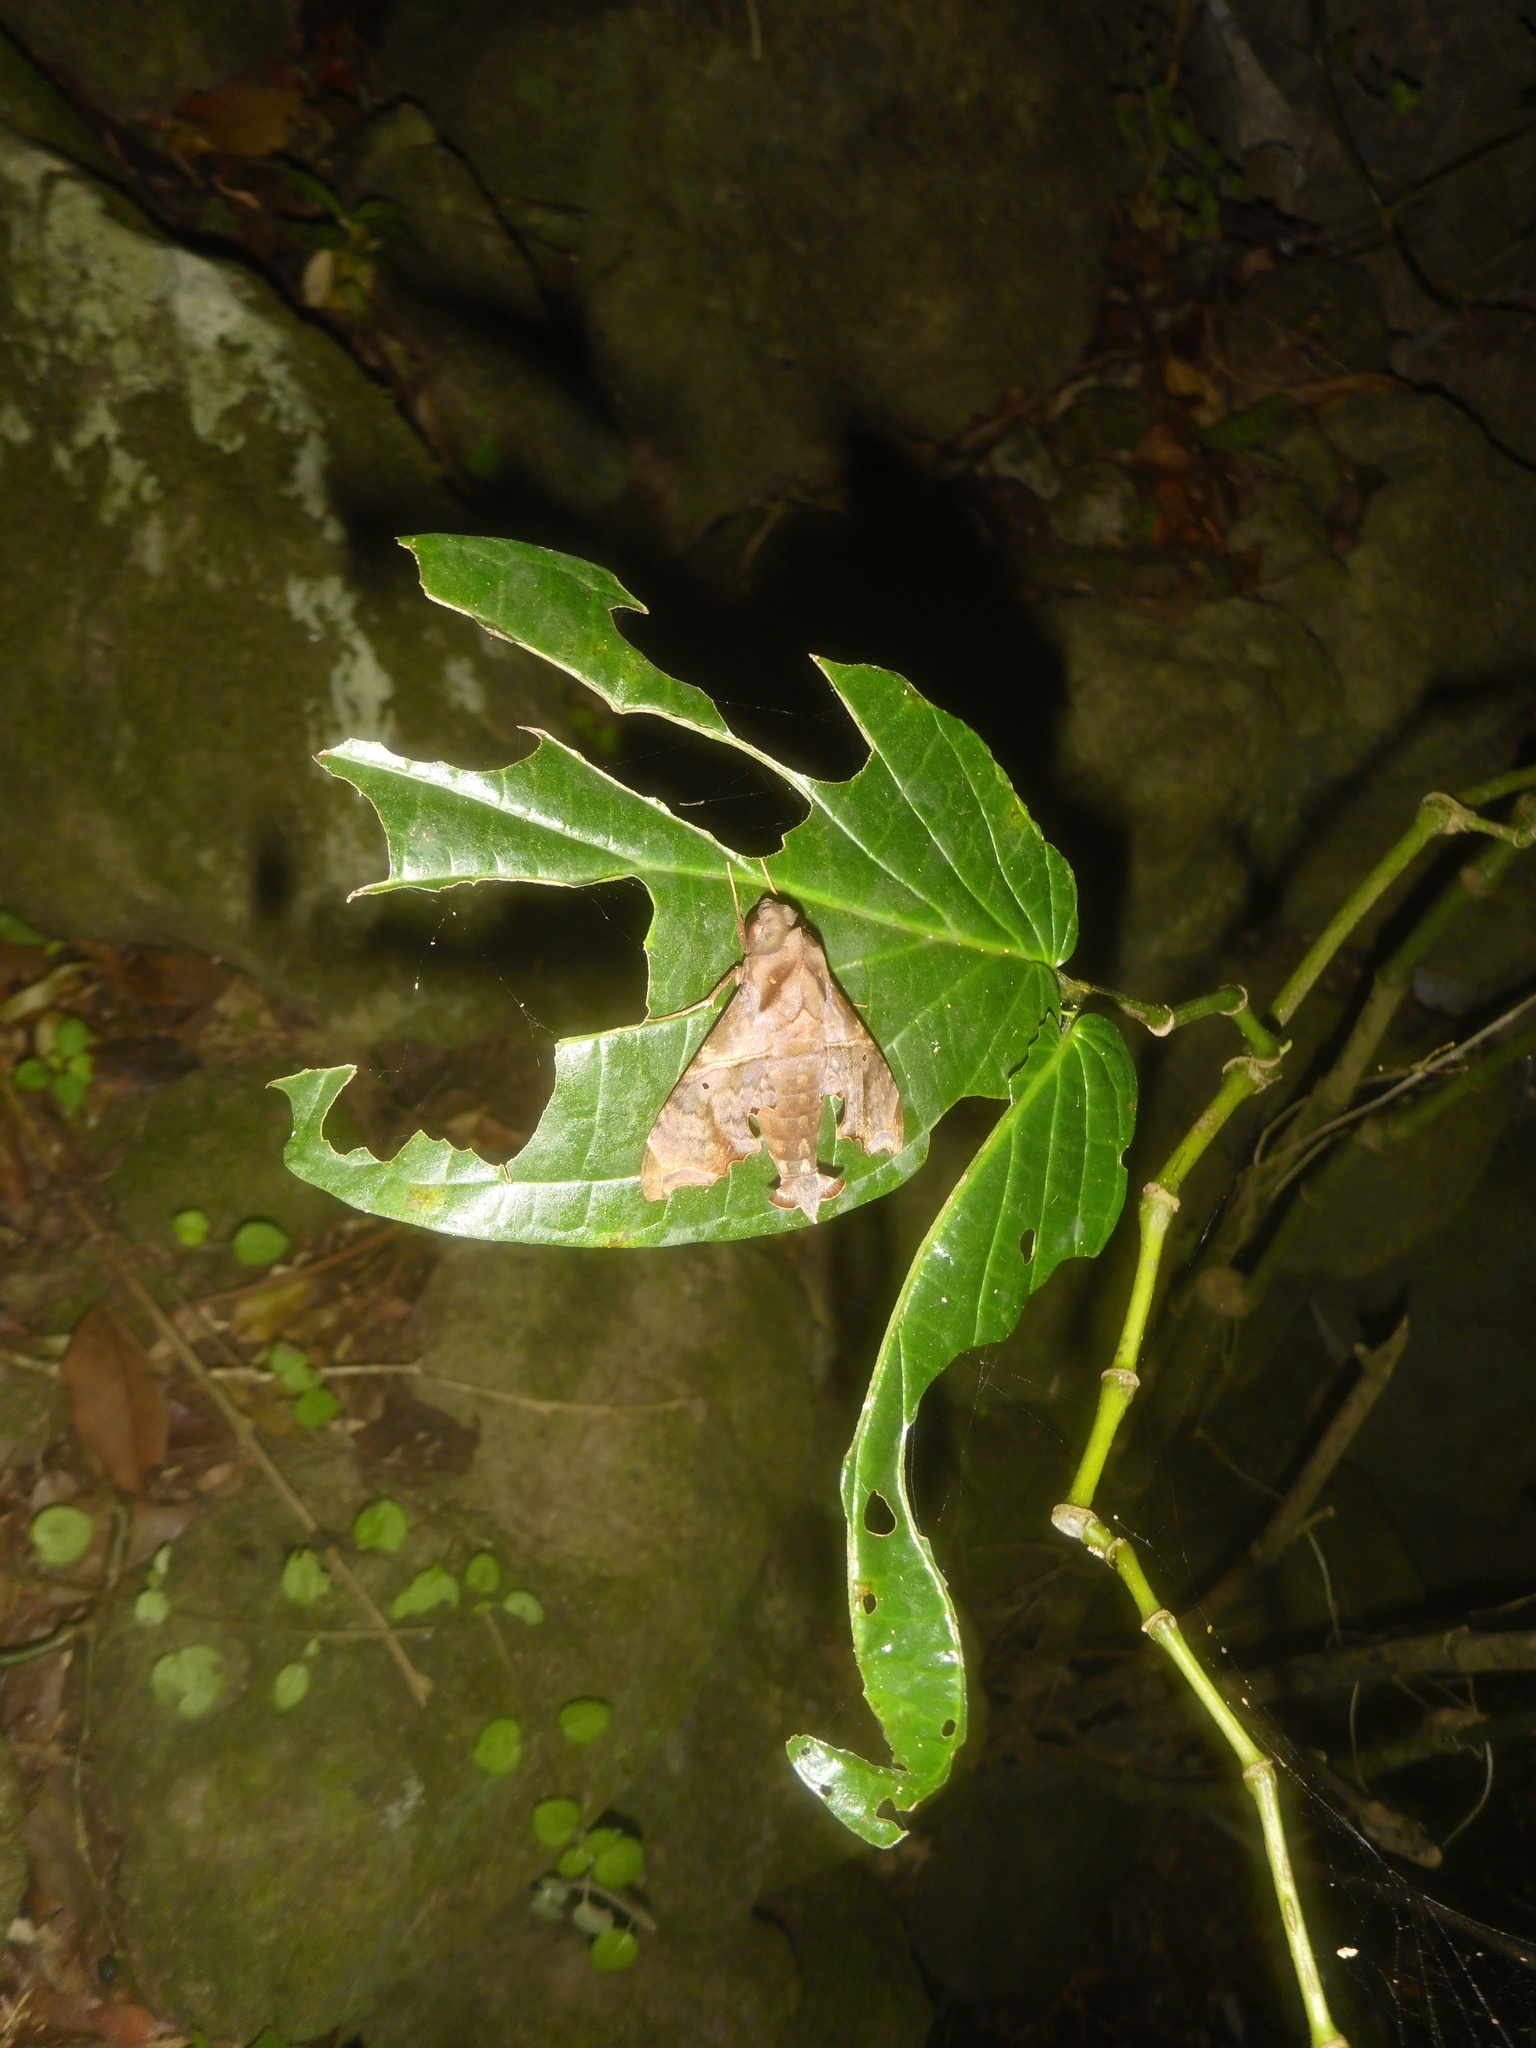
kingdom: Animalia
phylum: Arthropoda
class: Insecta
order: Lepidoptera
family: Sphingidae
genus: Enyo
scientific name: Enyo lugubris
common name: Mournful sphinx
